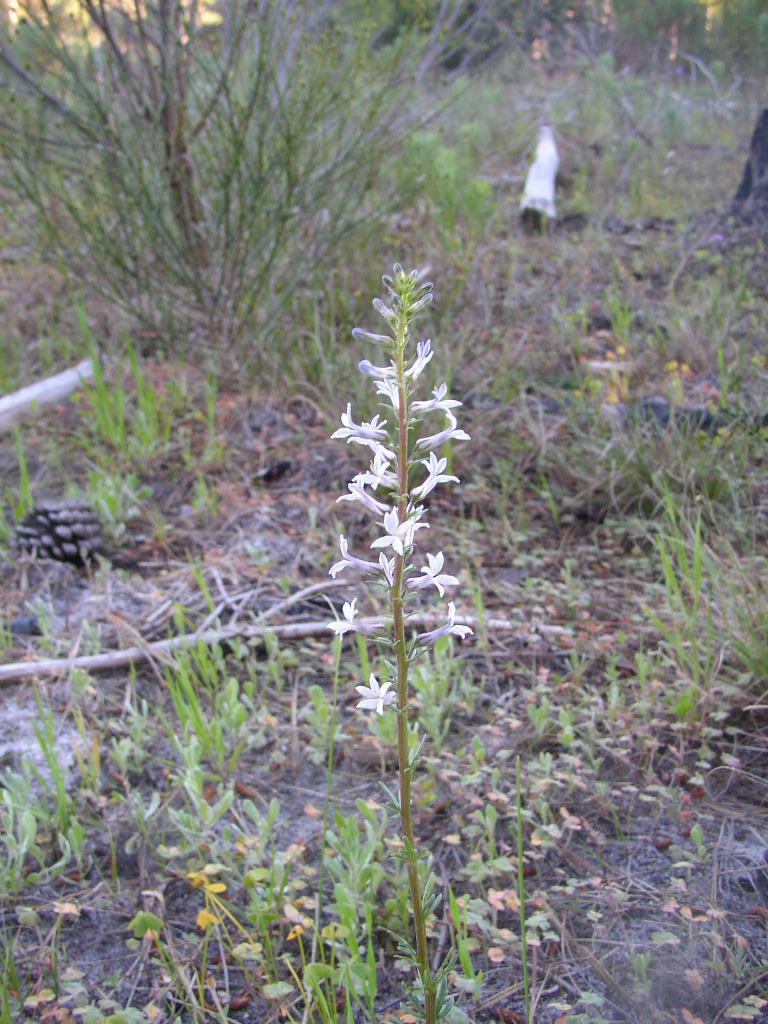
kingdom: Plantae
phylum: Tracheophyta
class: Magnoliopsida
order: Asterales
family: Campanulaceae
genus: Cyphia
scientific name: Cyphia bulbosa
